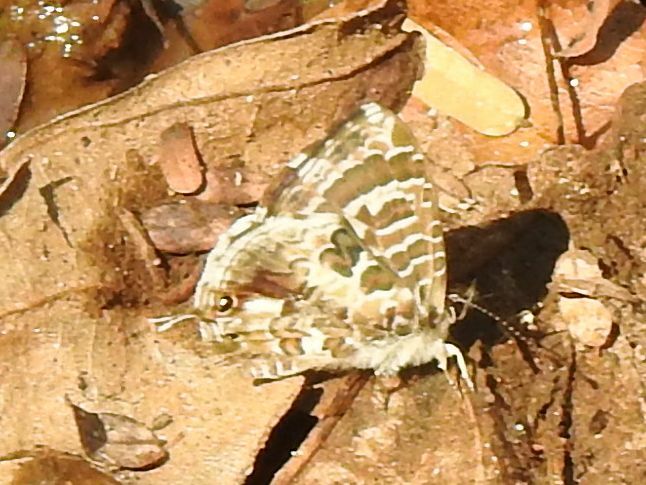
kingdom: Animalia
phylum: Arthropoda
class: Insecta
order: Lepidoptera
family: Lycaenidae
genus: Cacyreus
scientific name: Cacyreus lingeus
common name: Bush bronze
